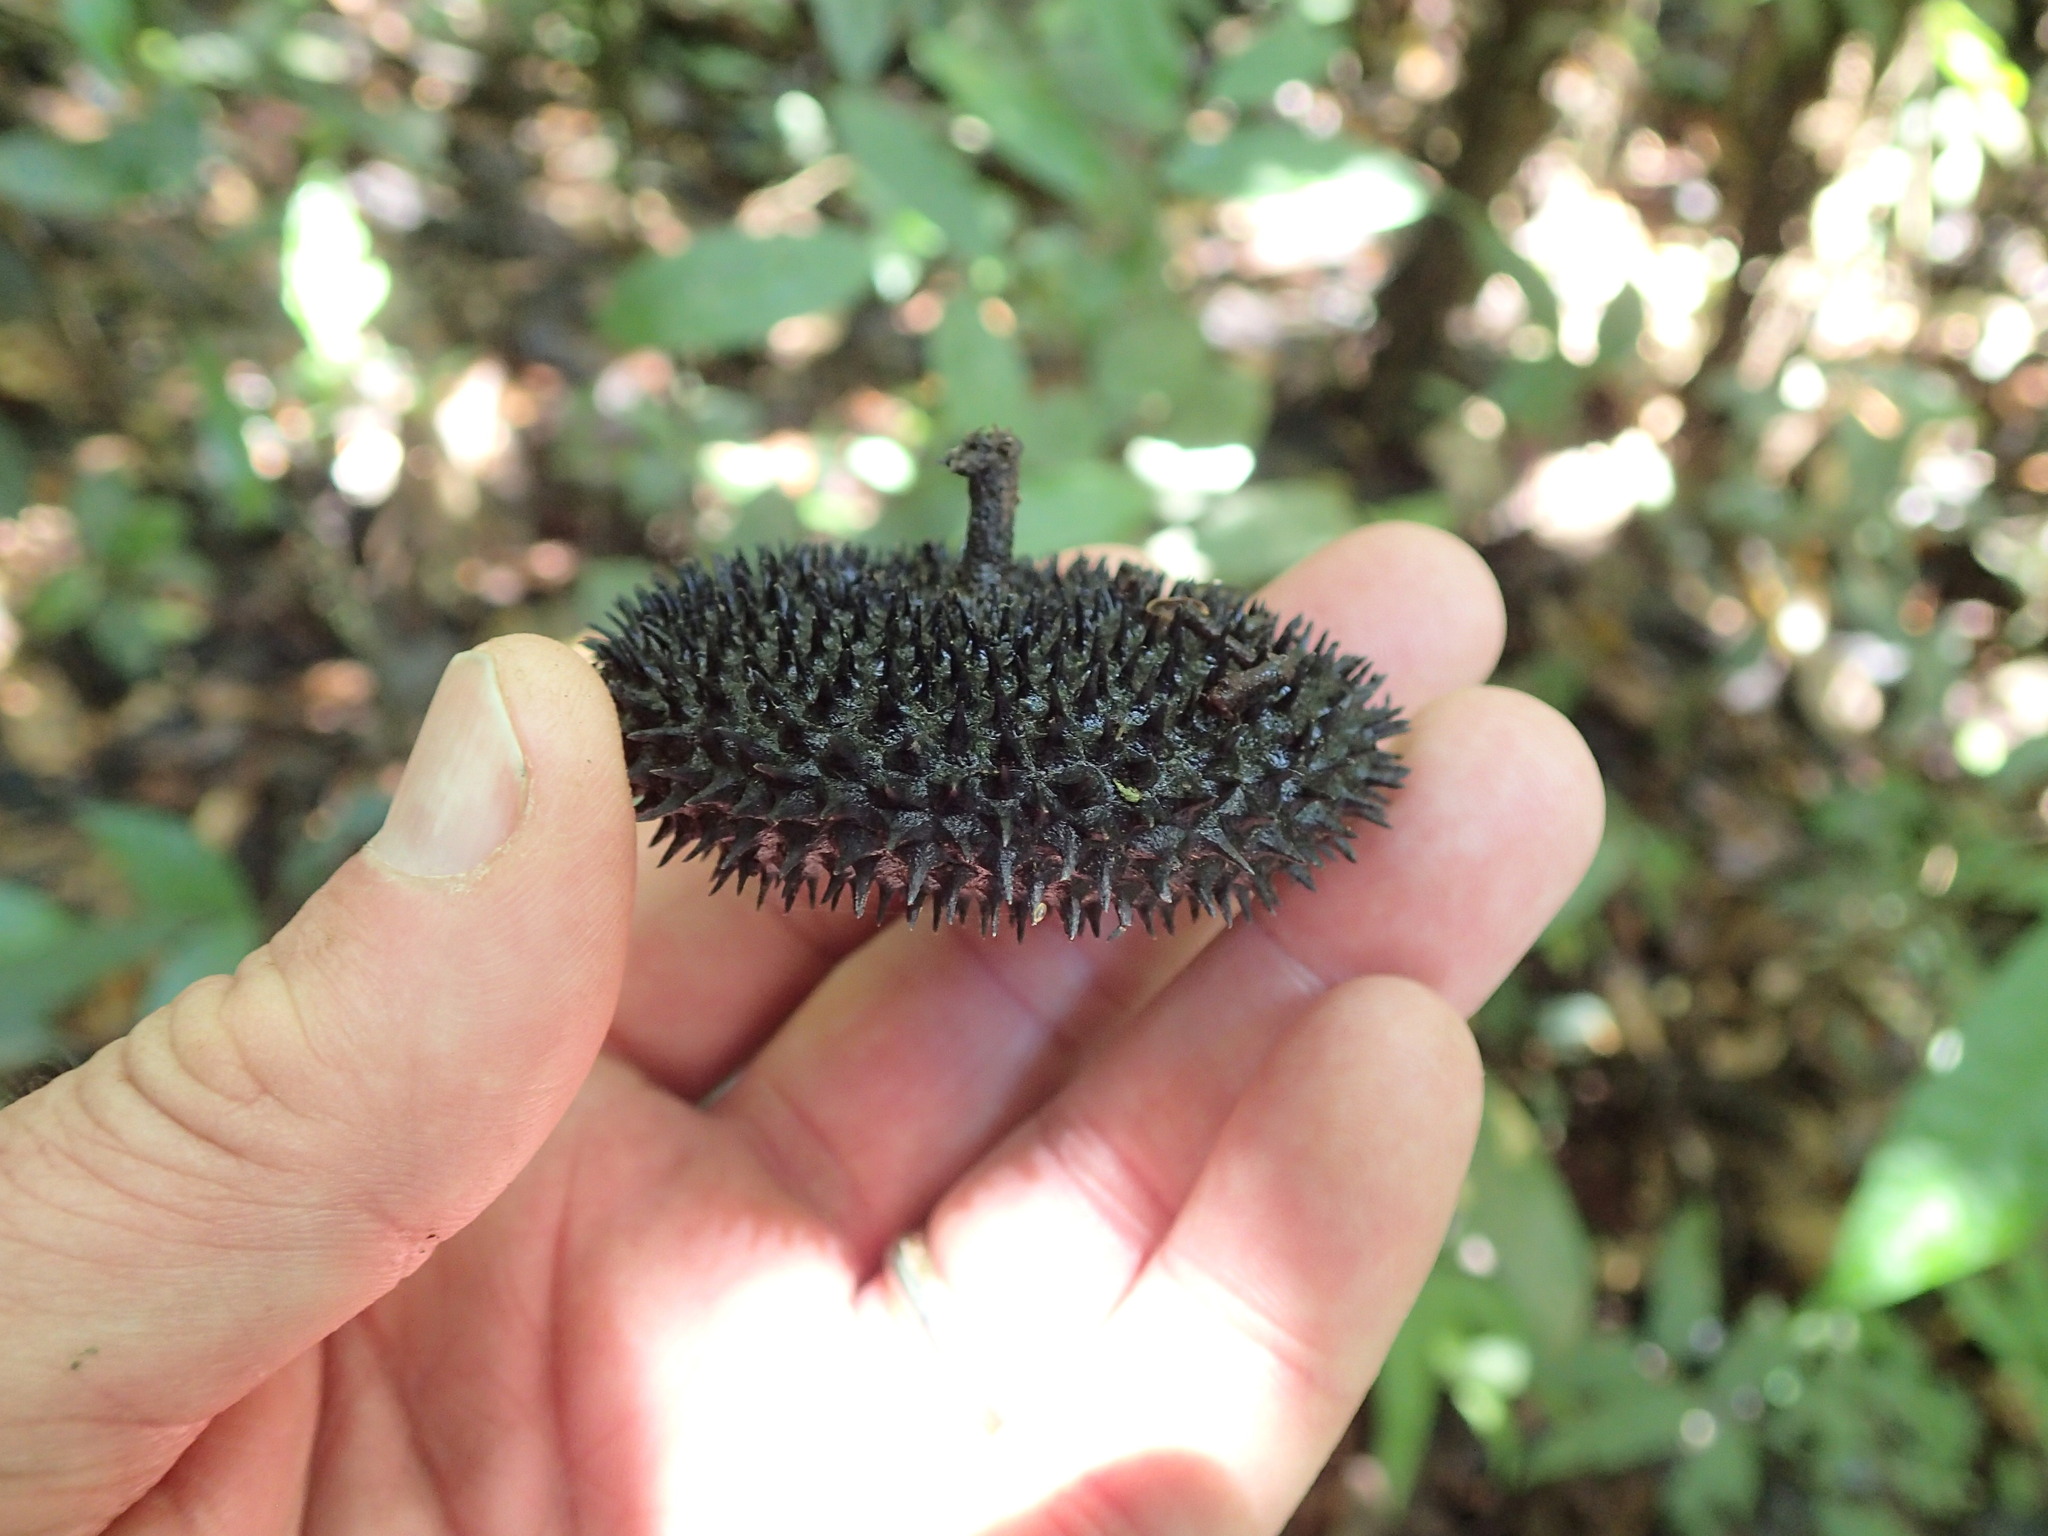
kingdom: Plantae
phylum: Tracheophyta
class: Magnoliopsida
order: Malvales
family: Malvaceae
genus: Apeiba
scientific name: Apeiba membranacea
